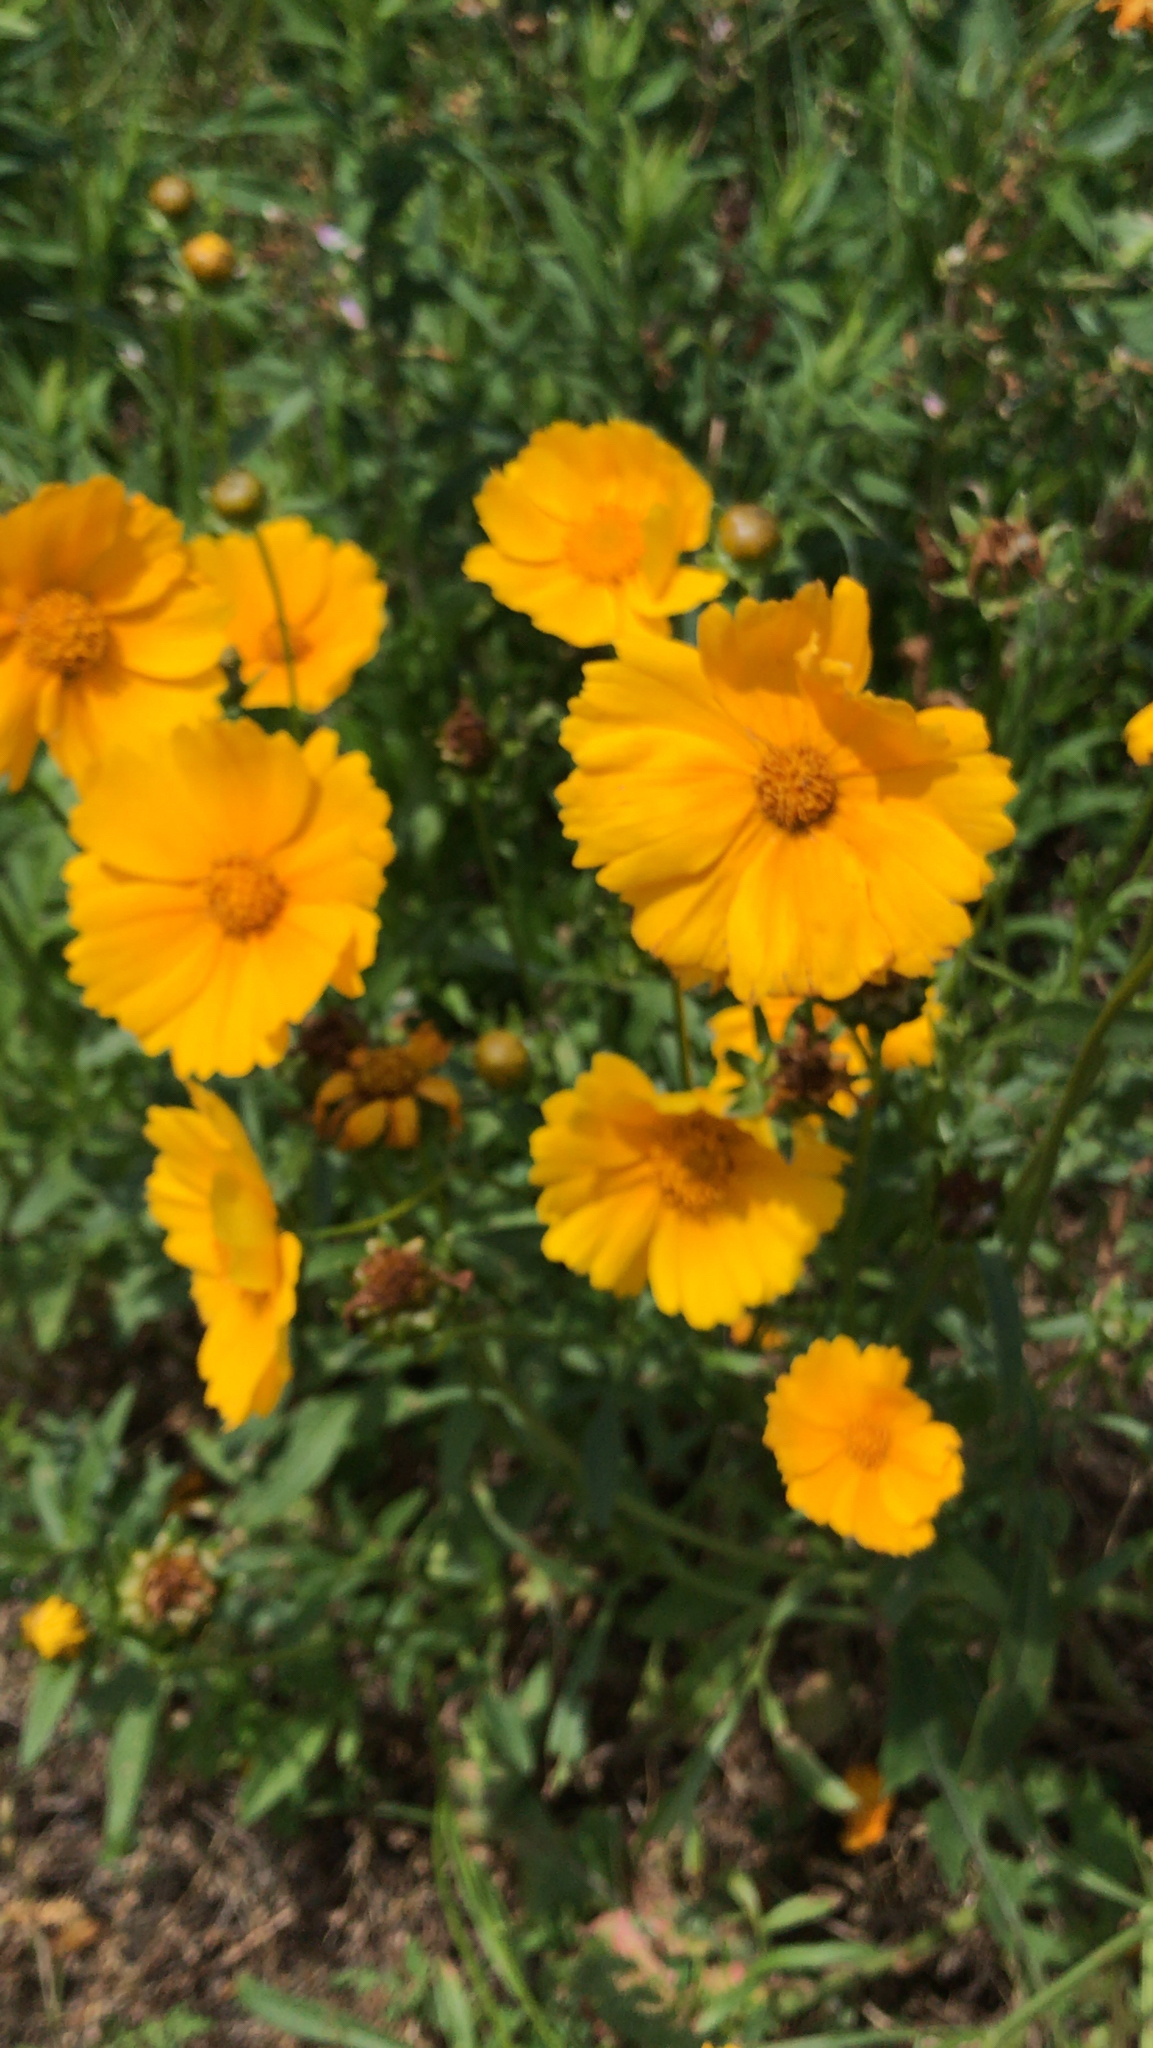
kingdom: Plantae
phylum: Tracheophyta
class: Magnoliopsida
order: Asterales
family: Asteraceae
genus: Coreopsis
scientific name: Coreopsis lanceolata
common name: Garden coreopsis
